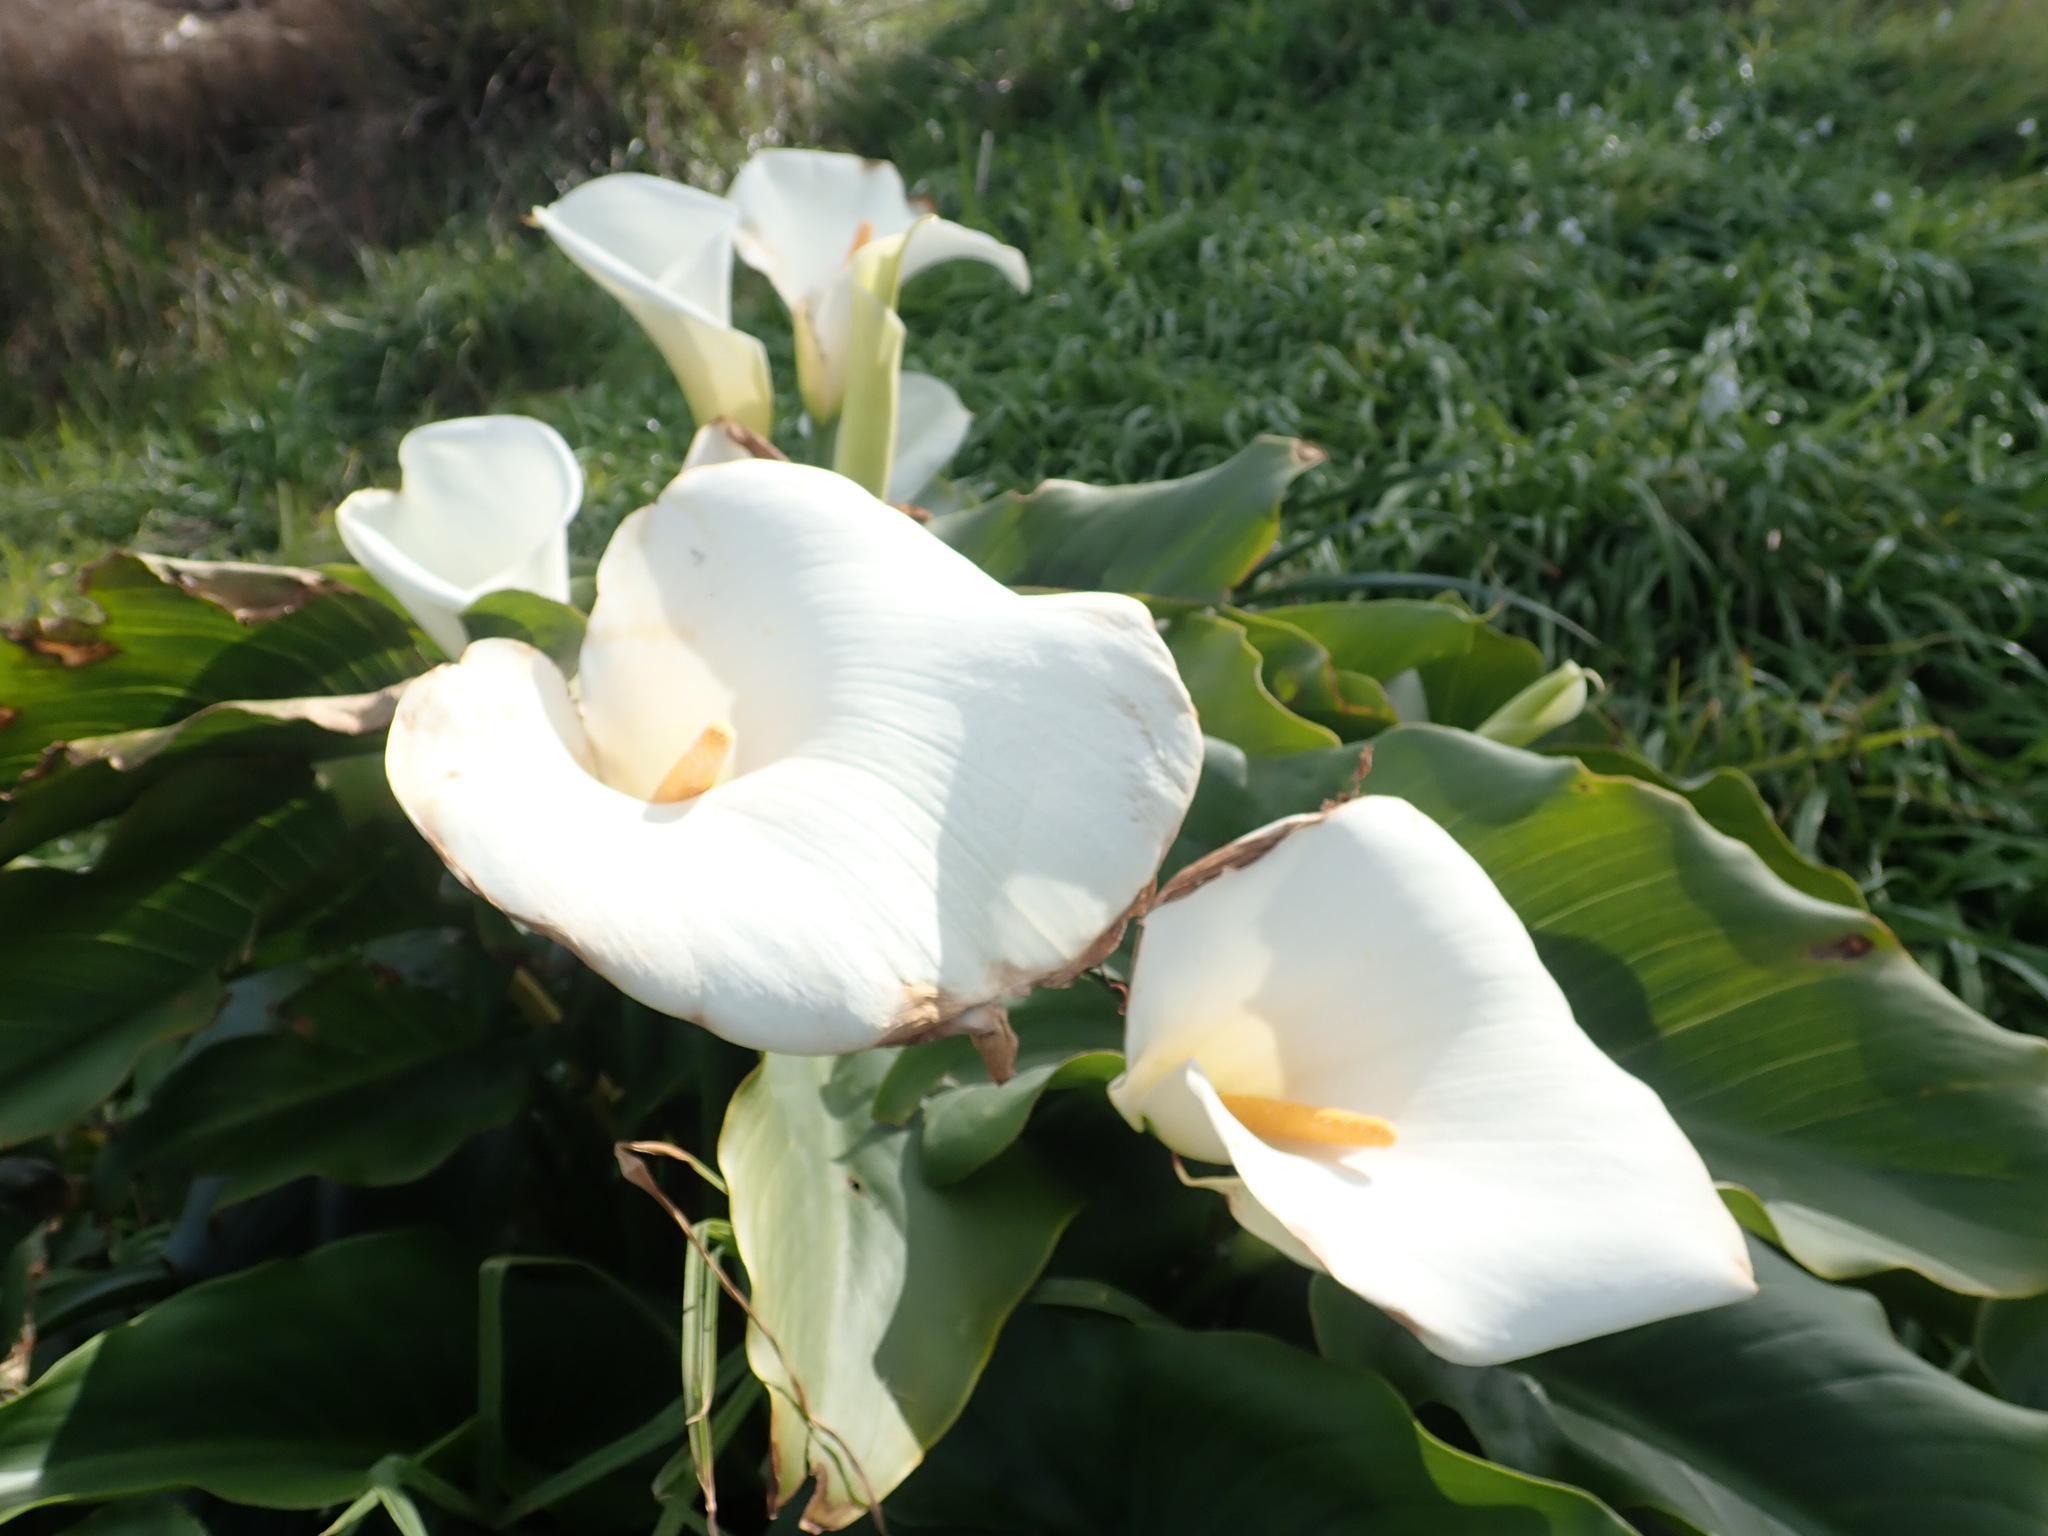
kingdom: Plantae
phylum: Tracheophyta
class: Liliopsida
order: Alismatales
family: Araceae
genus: Zantedeschia
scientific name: Zantedeschia aethiopica
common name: Altar-lily
